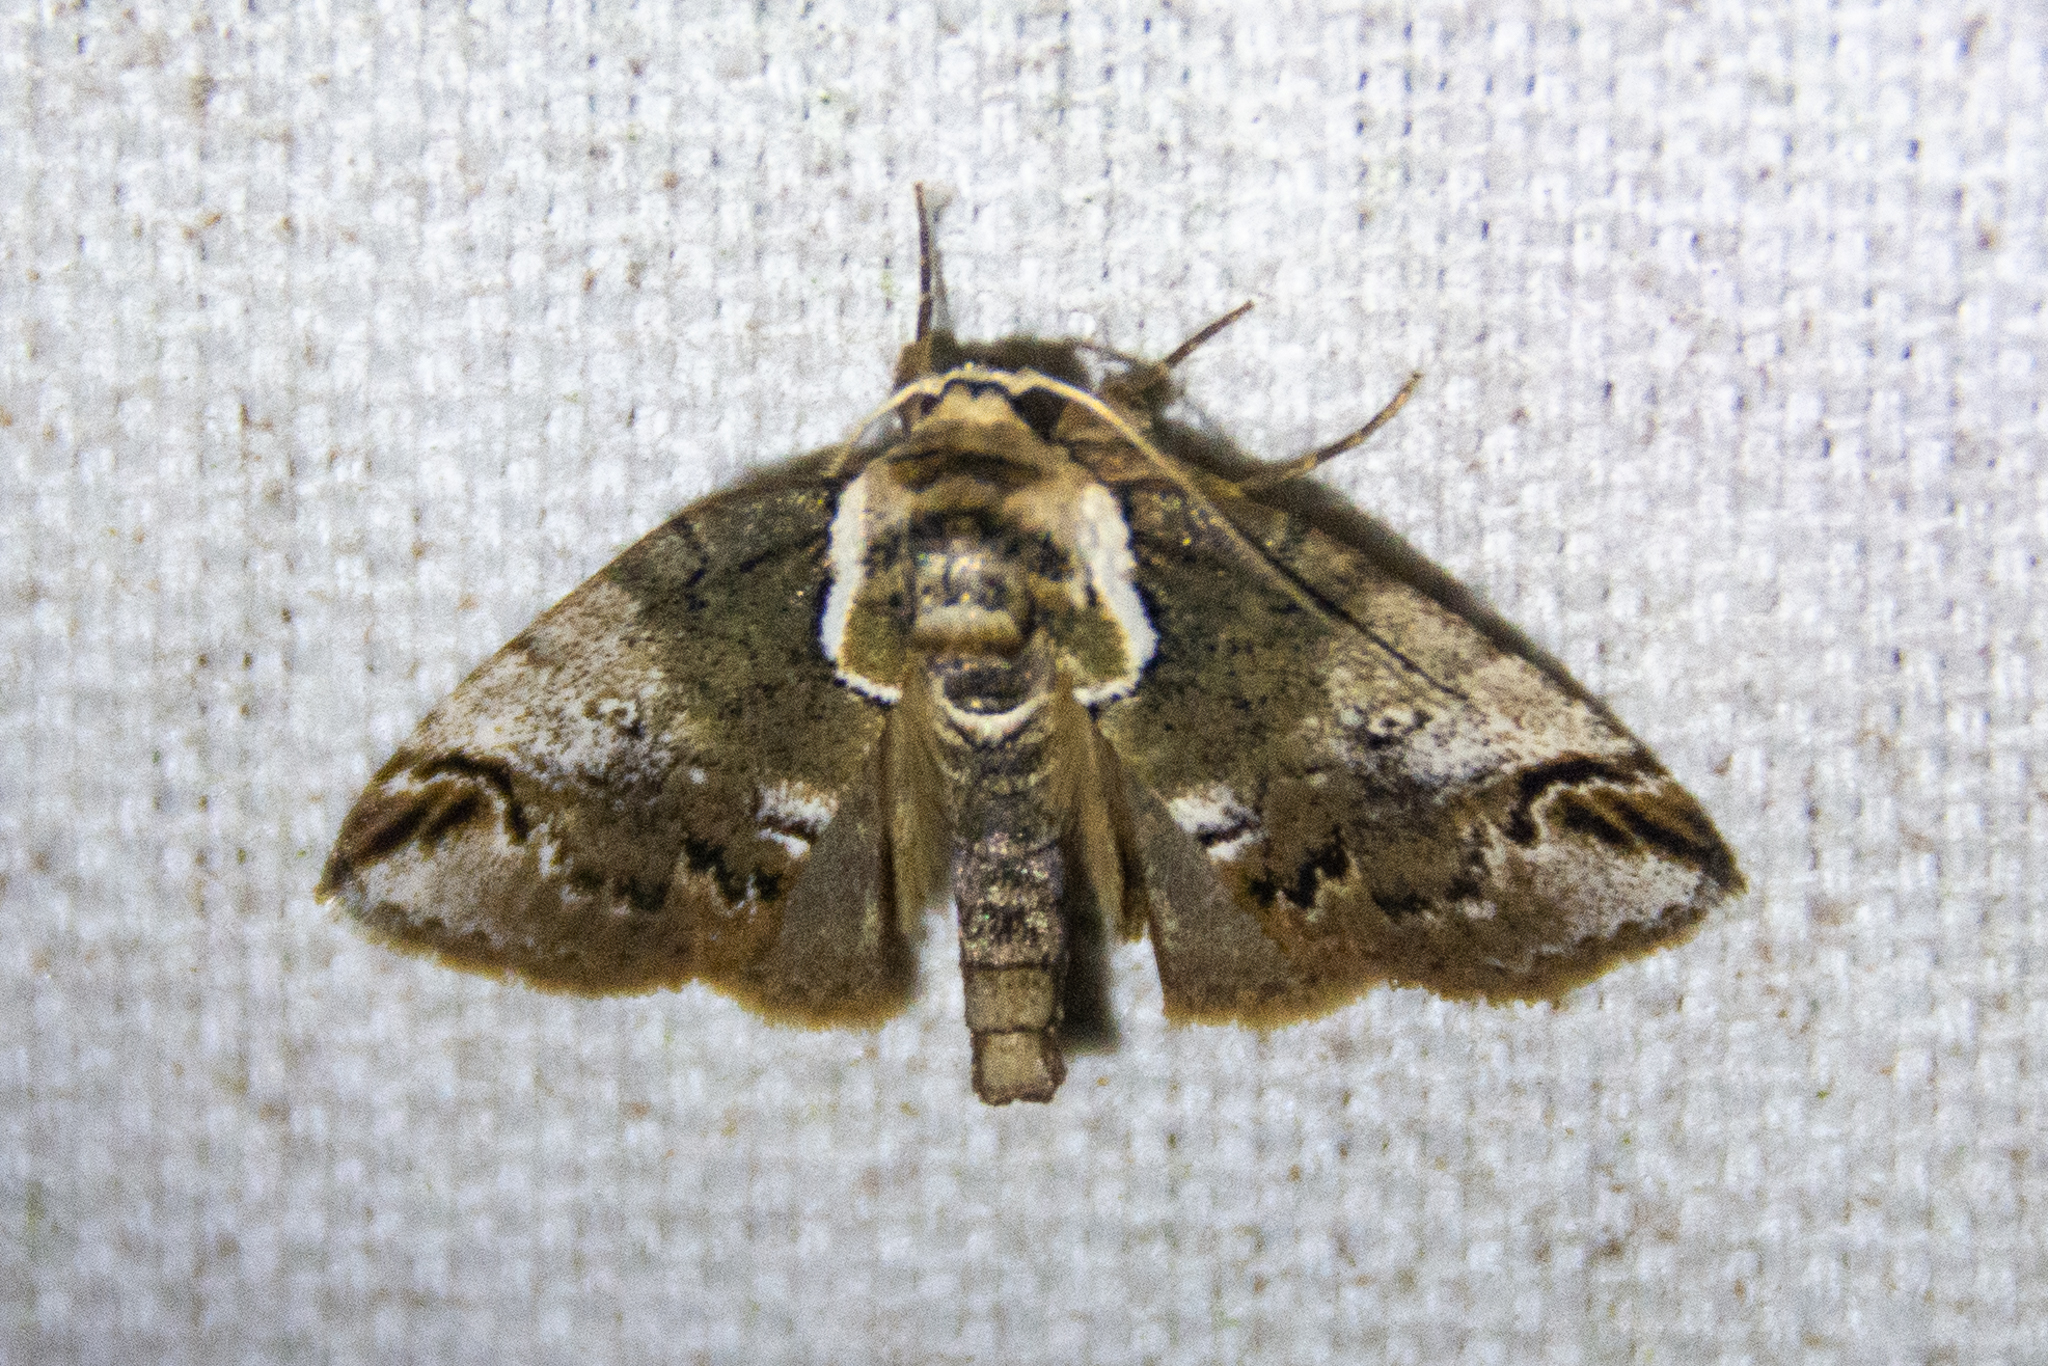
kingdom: Animalia
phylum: Arthropoda
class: Insecta
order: Lepidoptera
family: Nolidae
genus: Baileya
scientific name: Baileya ophthalmica
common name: Eyed baileya moth
